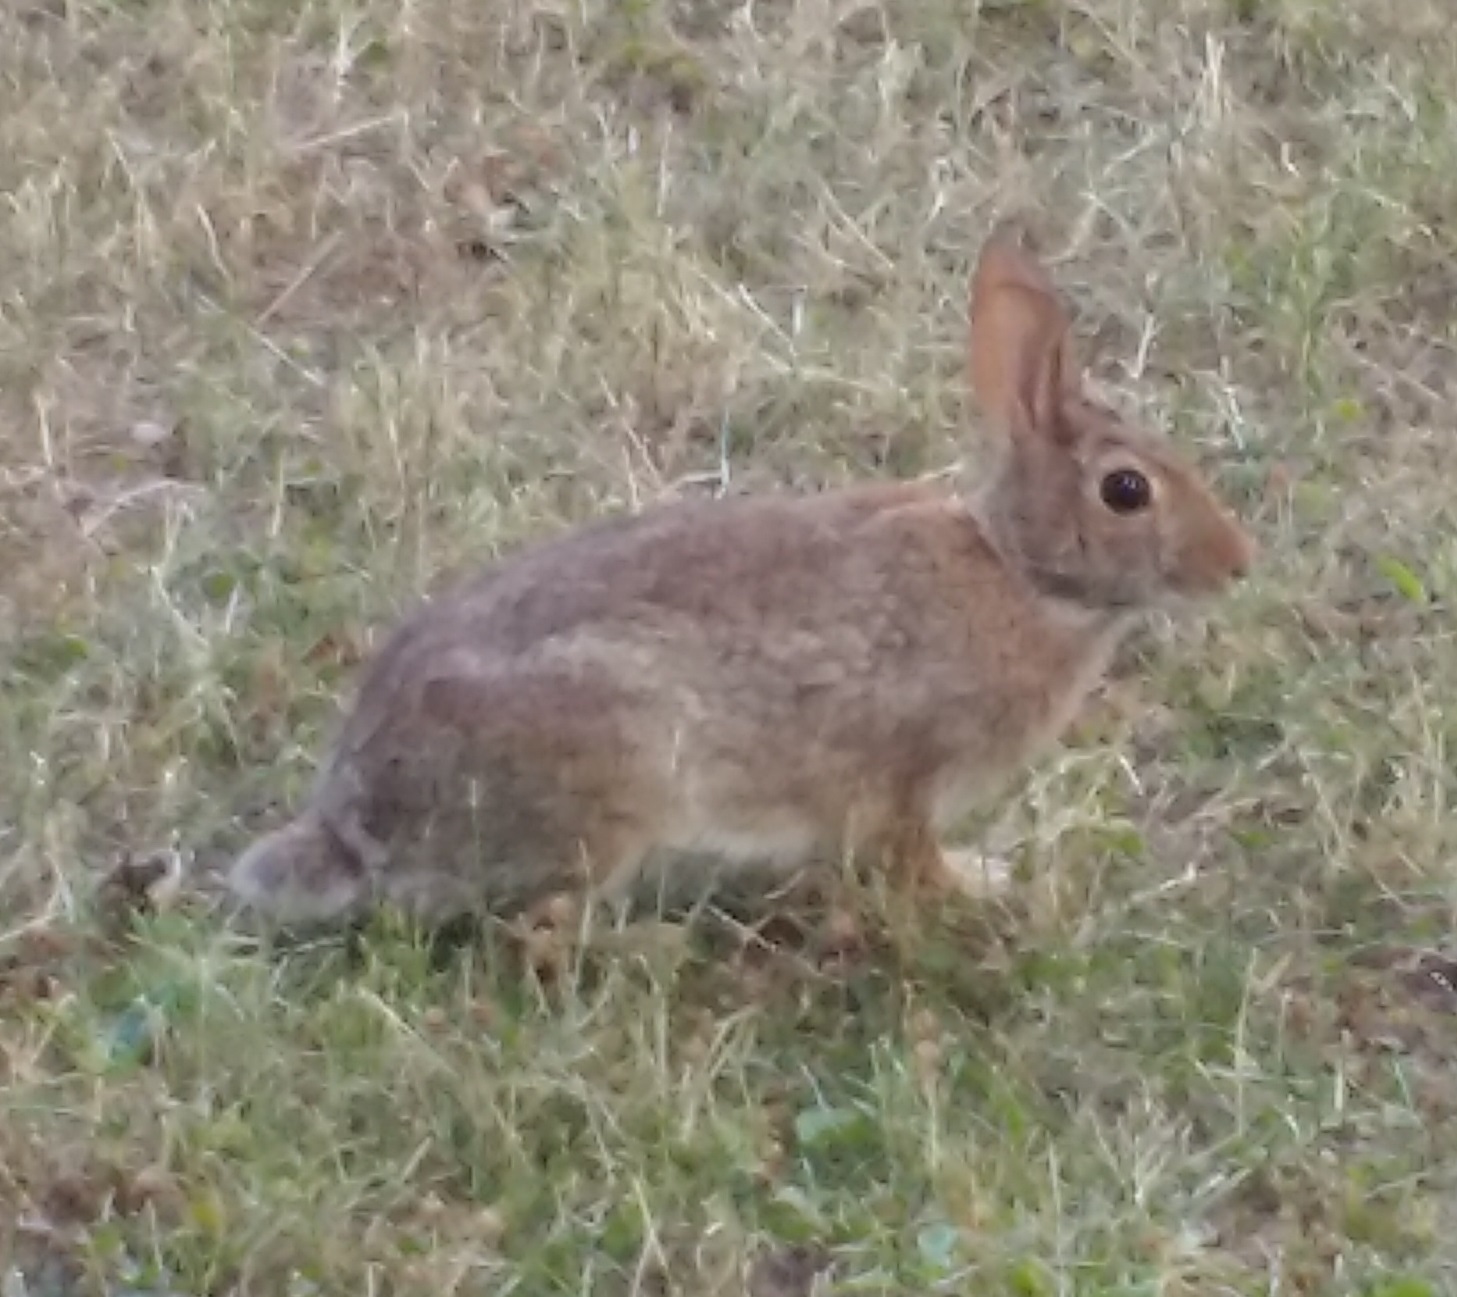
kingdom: Animalia
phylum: Chordata
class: Mammalia
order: Lagomorpha
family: Leporidae
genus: Sylvilagus
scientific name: Sylvilagus floridanus
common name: Eastern cottontail
